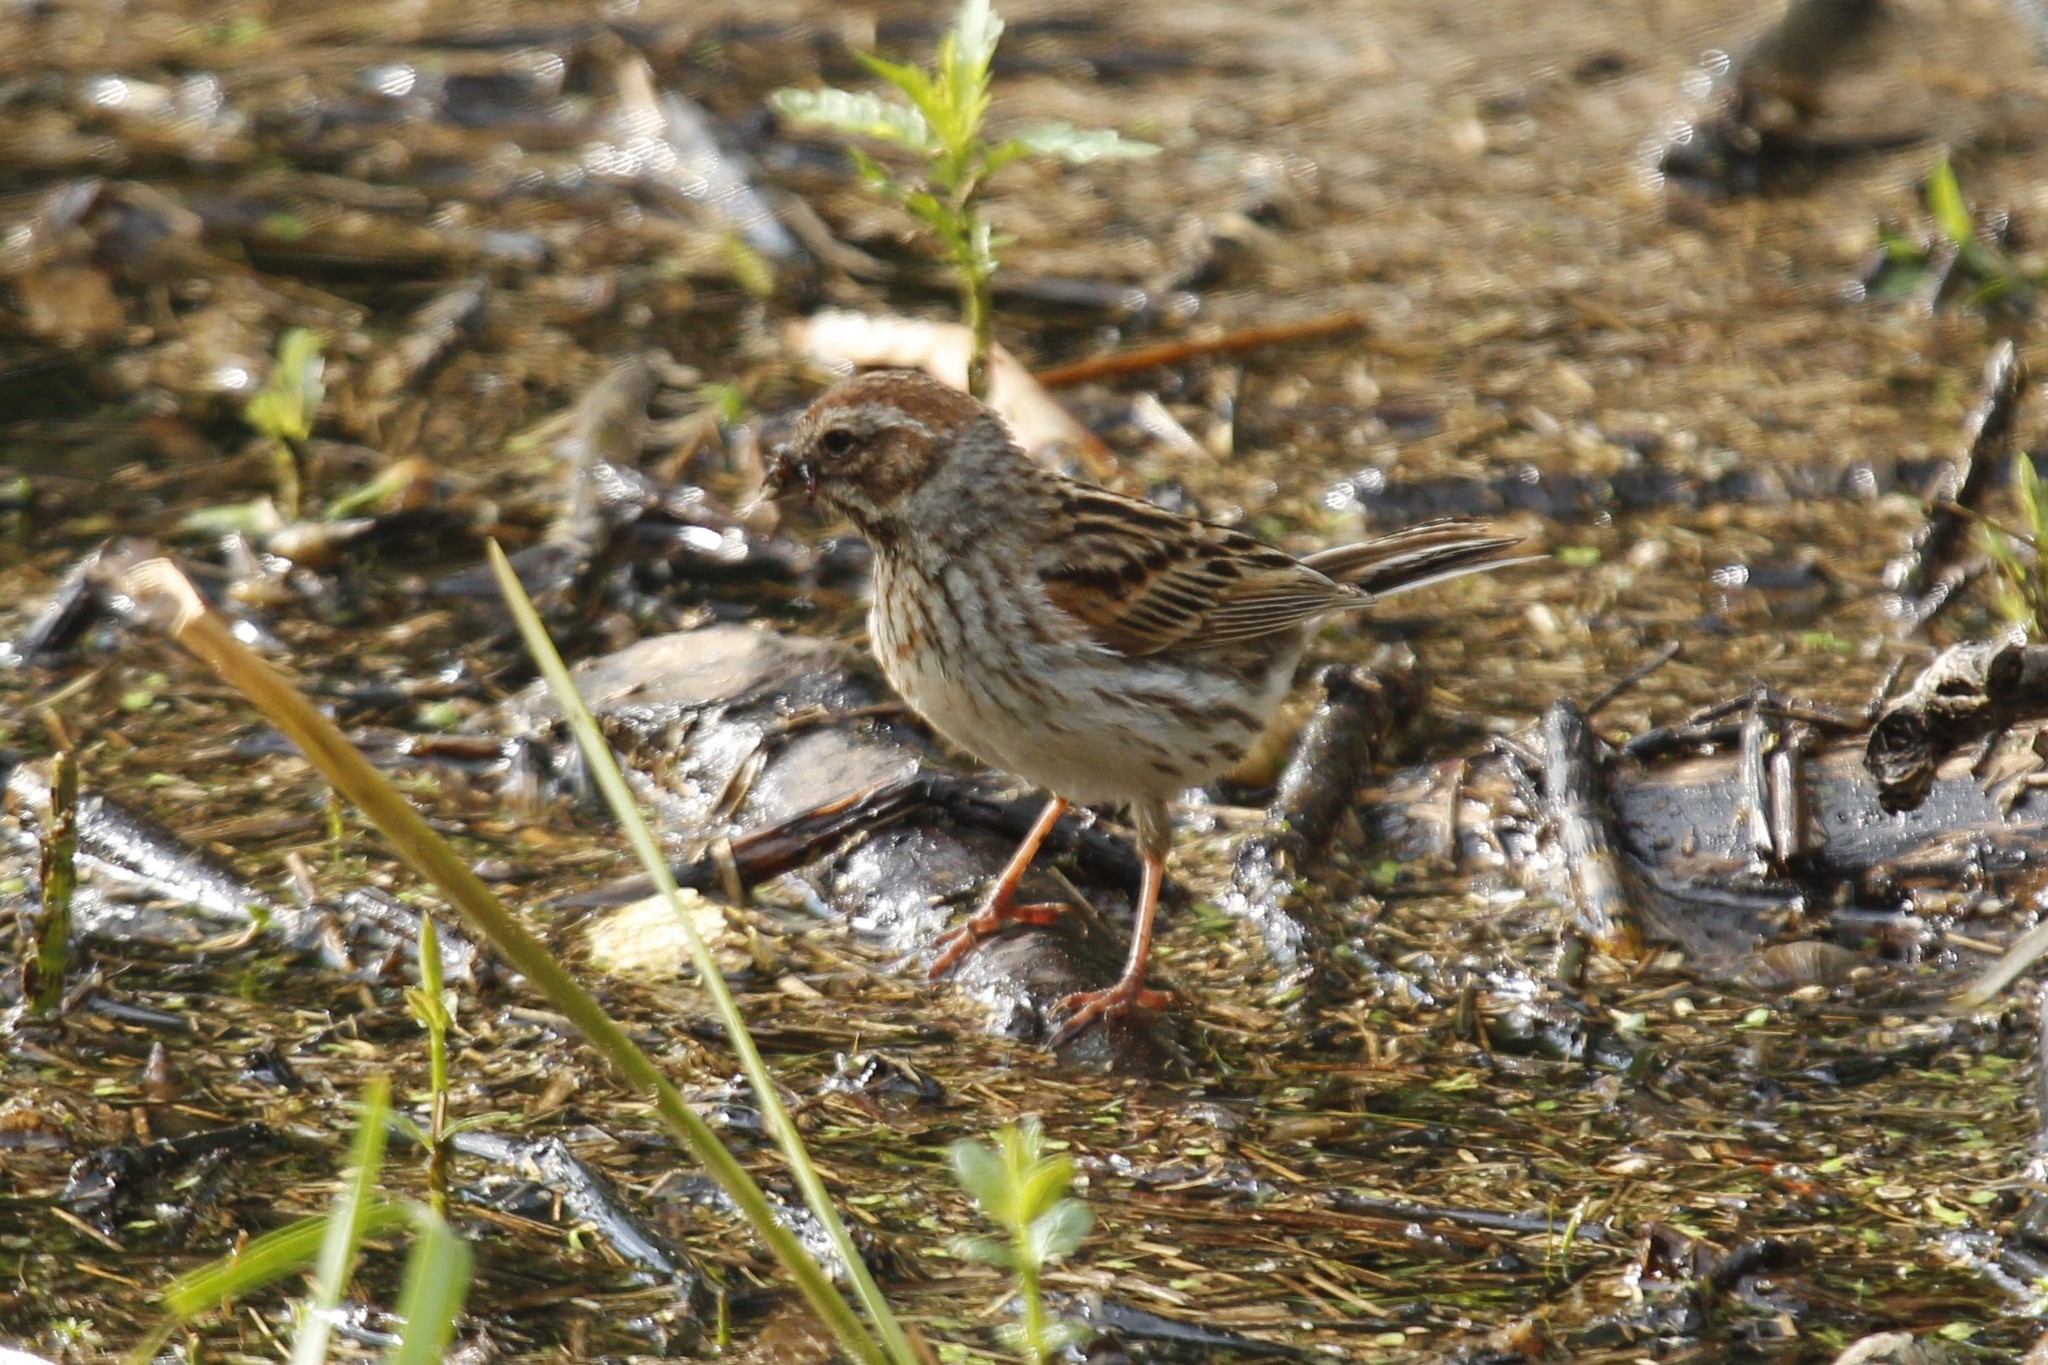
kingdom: Animalia
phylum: Chordata
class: Aves
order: Passeriformes
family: Emberizidae
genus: Emberiza
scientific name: Emberiza schoeniclus
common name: Reed bunting
